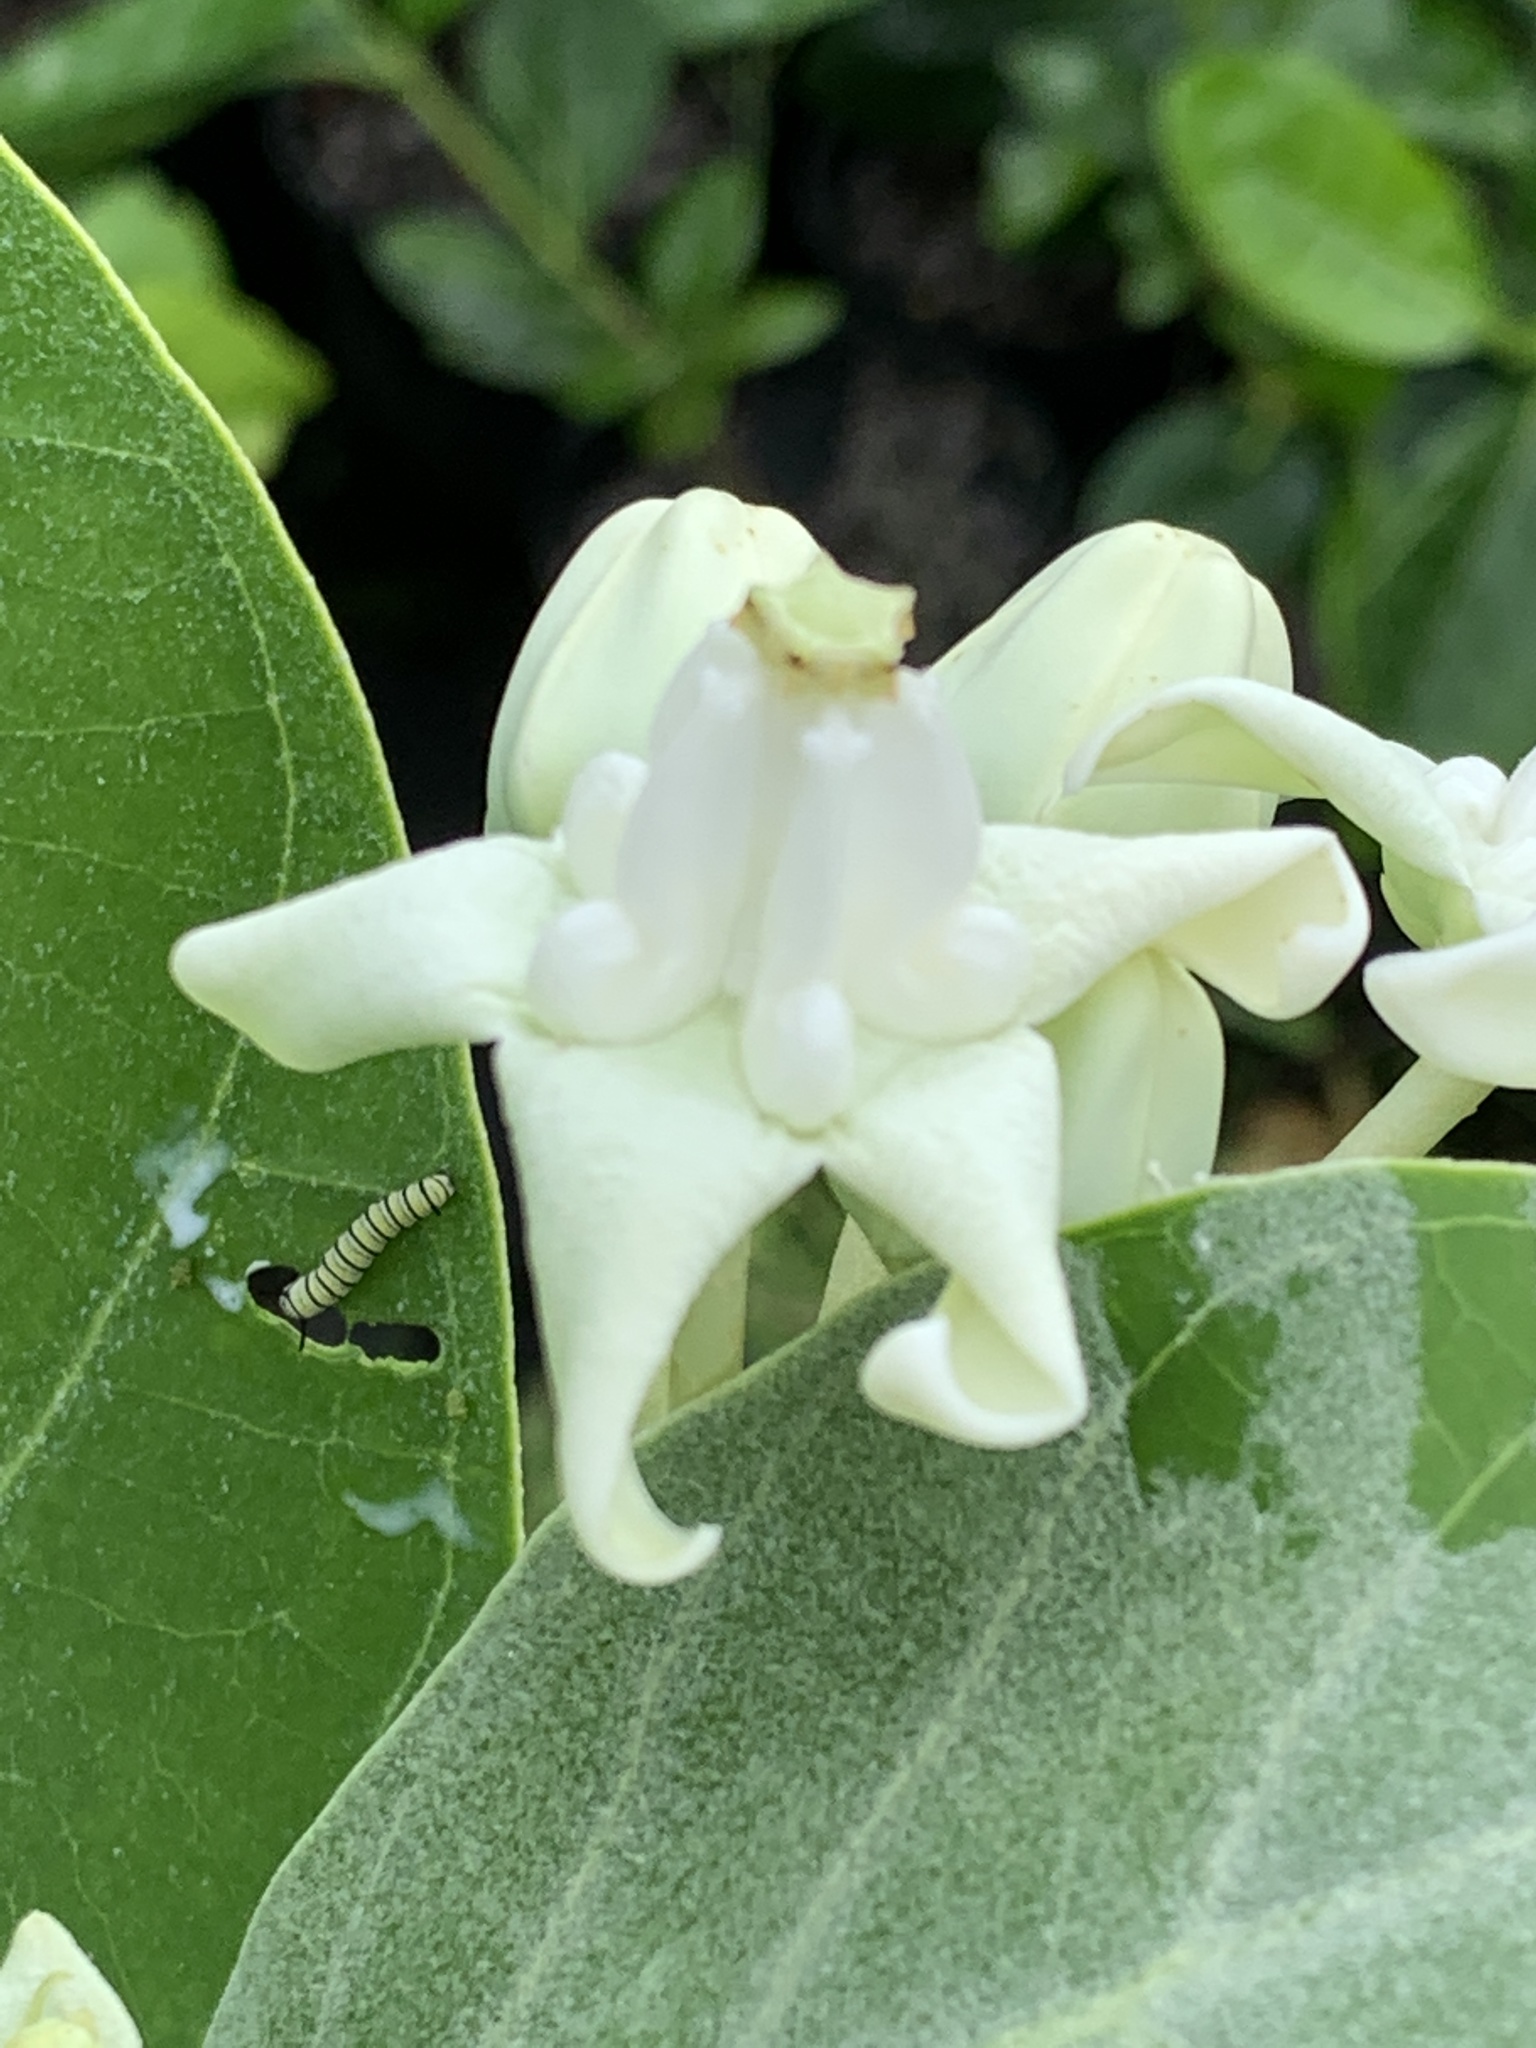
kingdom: Animalia
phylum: Arthropoda
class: Insecta
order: Lepidoptera
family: Nymphalidae
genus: Danaus
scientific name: Danaus plexippus
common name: Monarch
